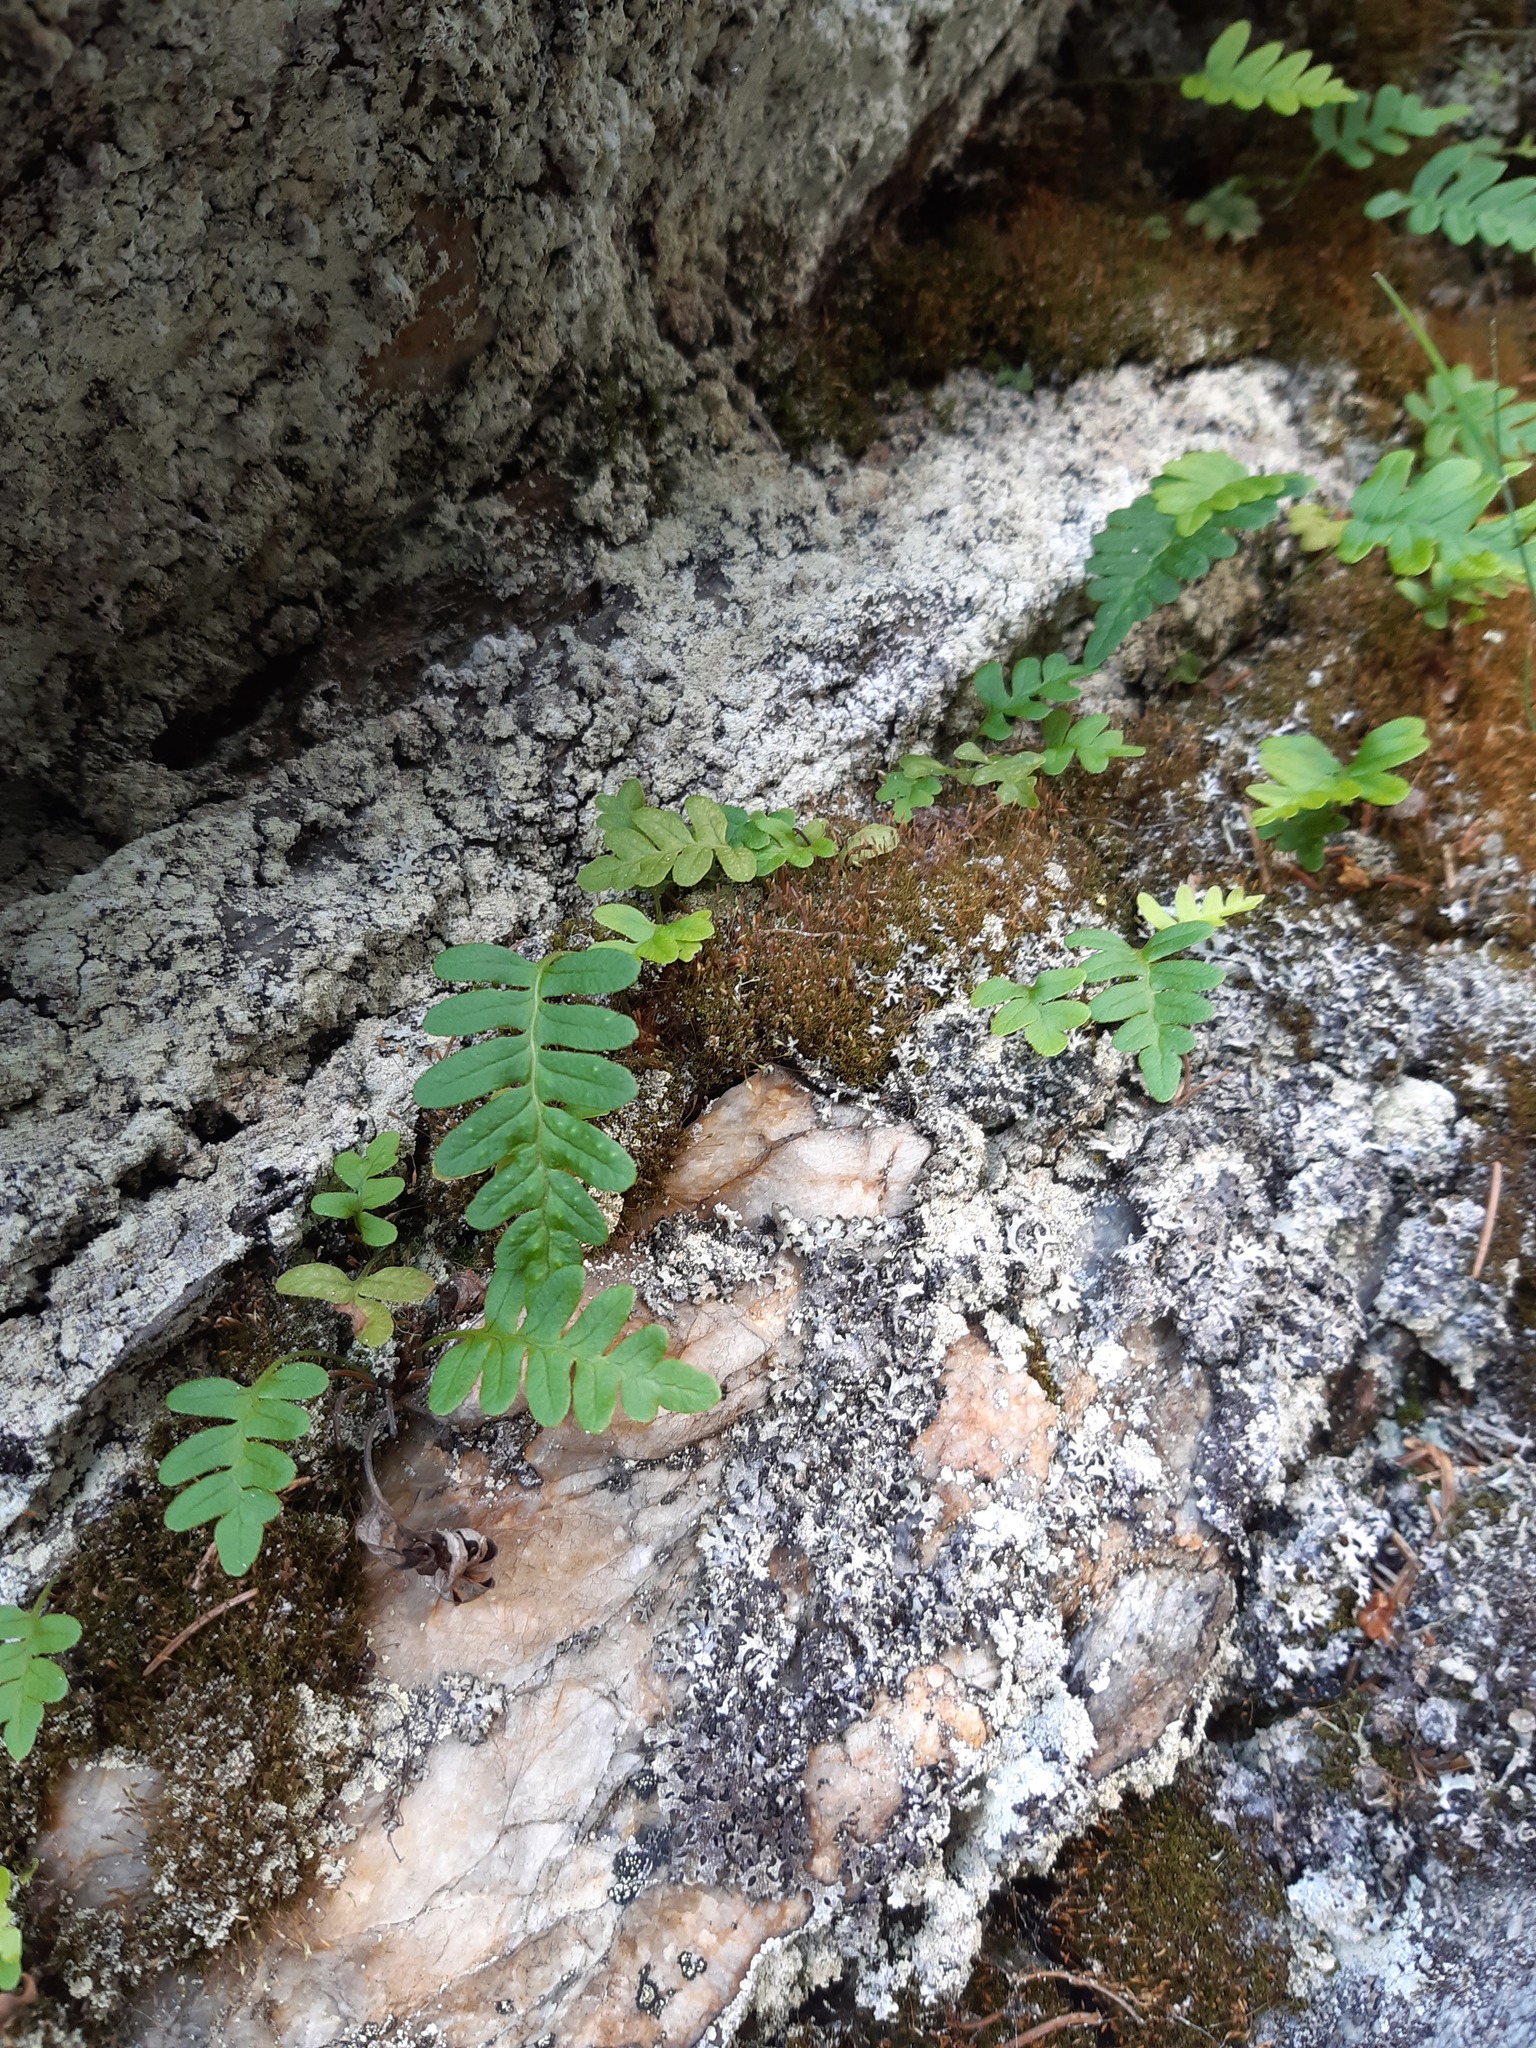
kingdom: Plantae
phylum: Tracheophyta
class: Polypodiopsida
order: Polypodiales
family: Polypodiaceae
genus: Polypodium
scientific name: Polypodium vulgare
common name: Common polypody
